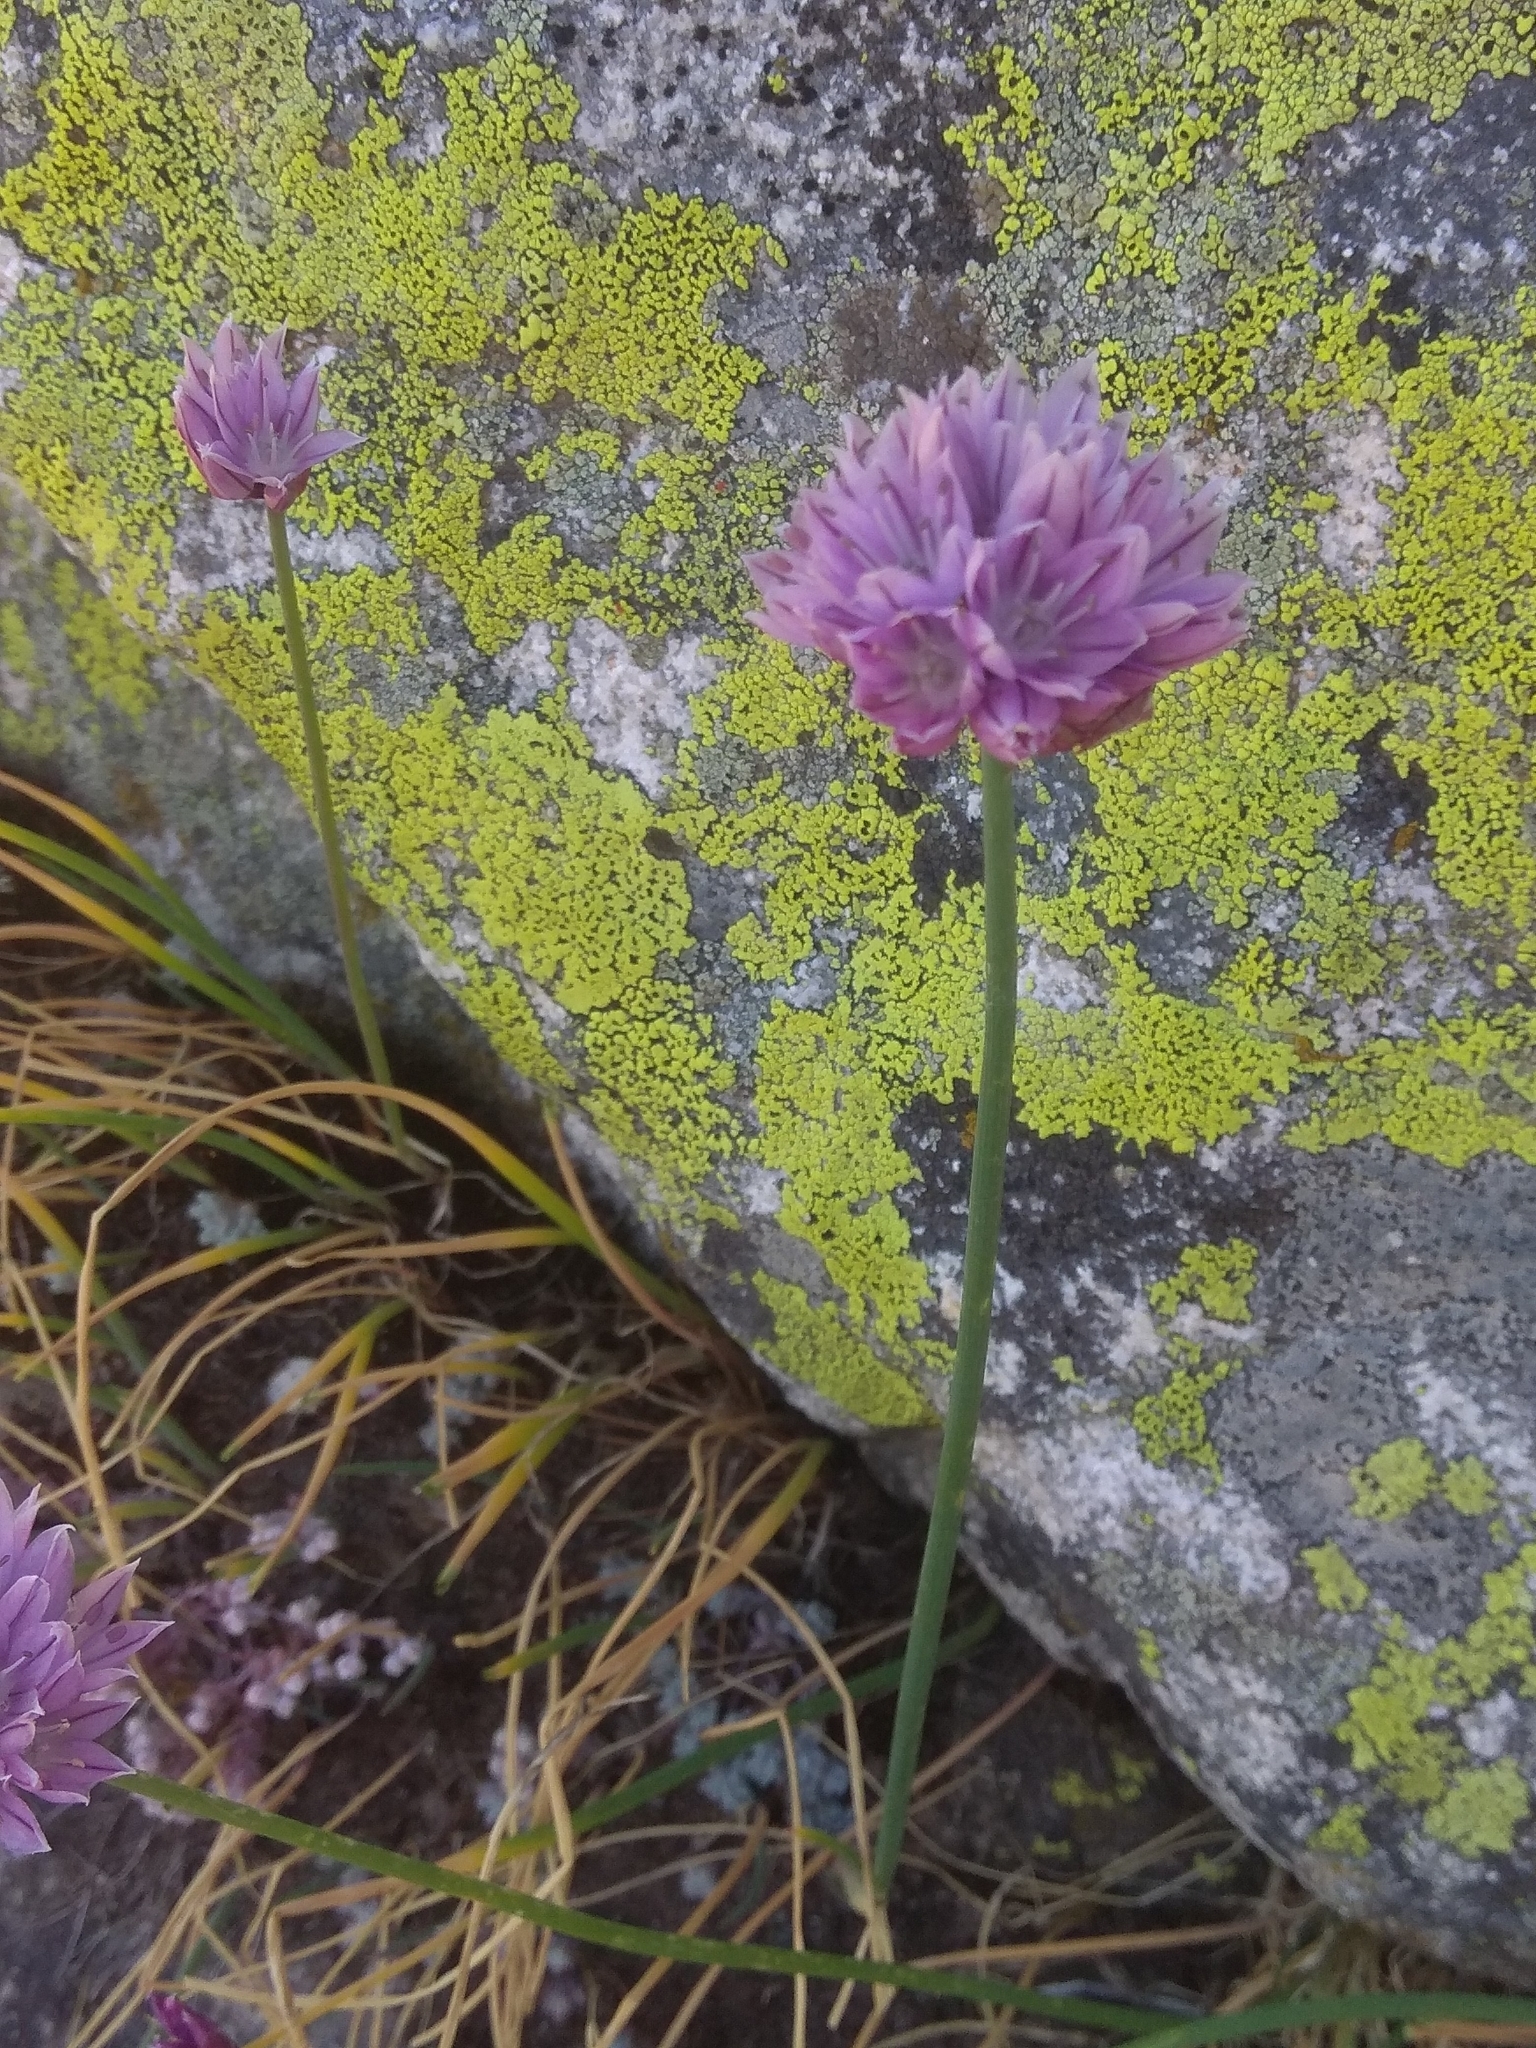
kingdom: Plantae
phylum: Tracheophyta
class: Liliopsida
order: Asparagales
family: Amaryllidaceae
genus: Allium
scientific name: Allium schoenoprasum
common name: Chives
